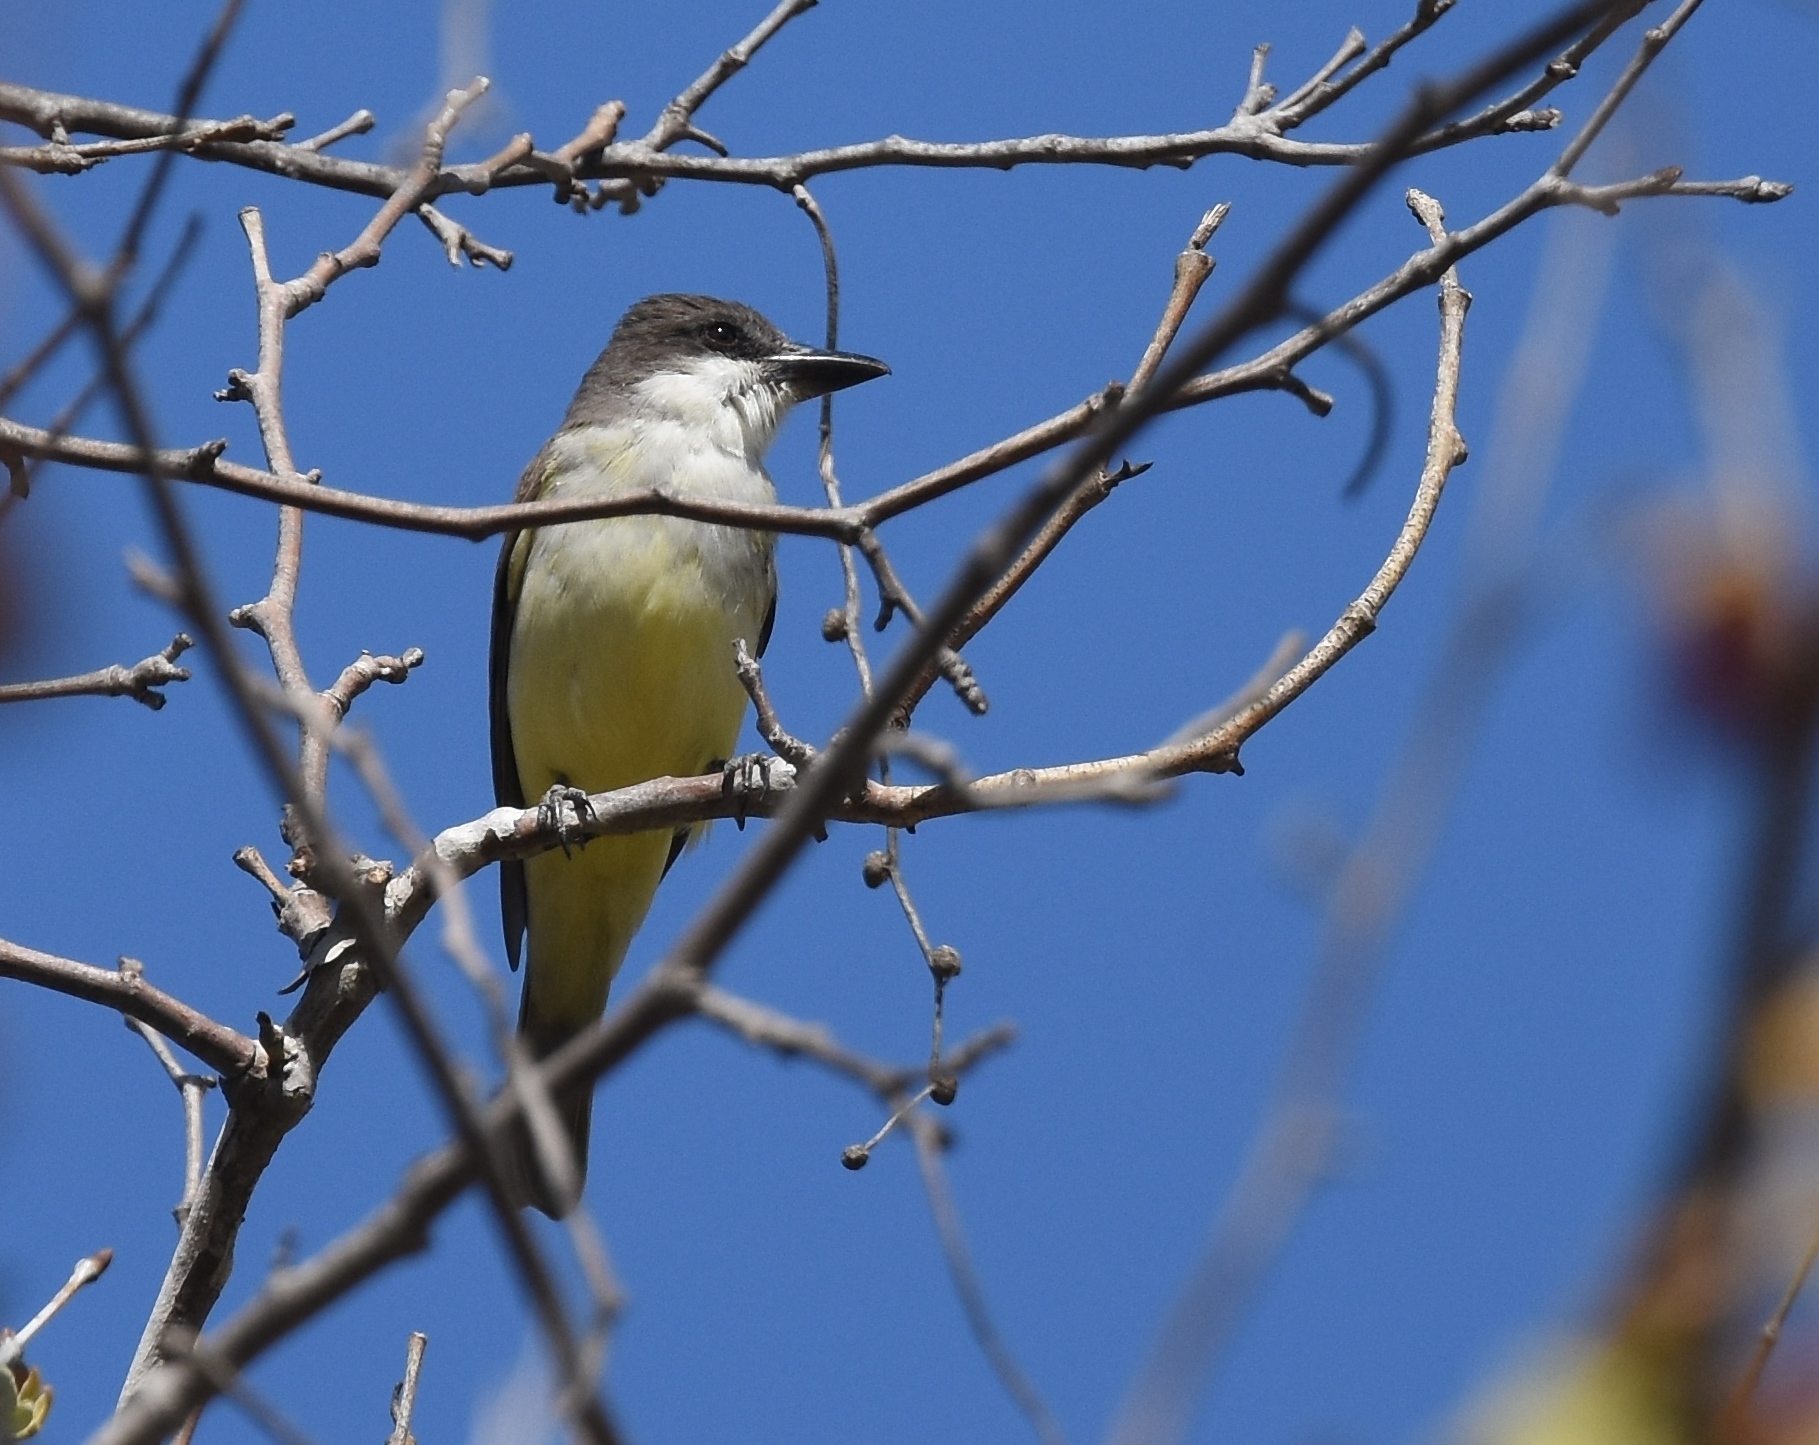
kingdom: Animalia
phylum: Chordata
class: Aves
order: Passeriformes
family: Tyrannidae
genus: Tyrannus
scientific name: Tyrannus crassirostris
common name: Thick-billed kingbird
